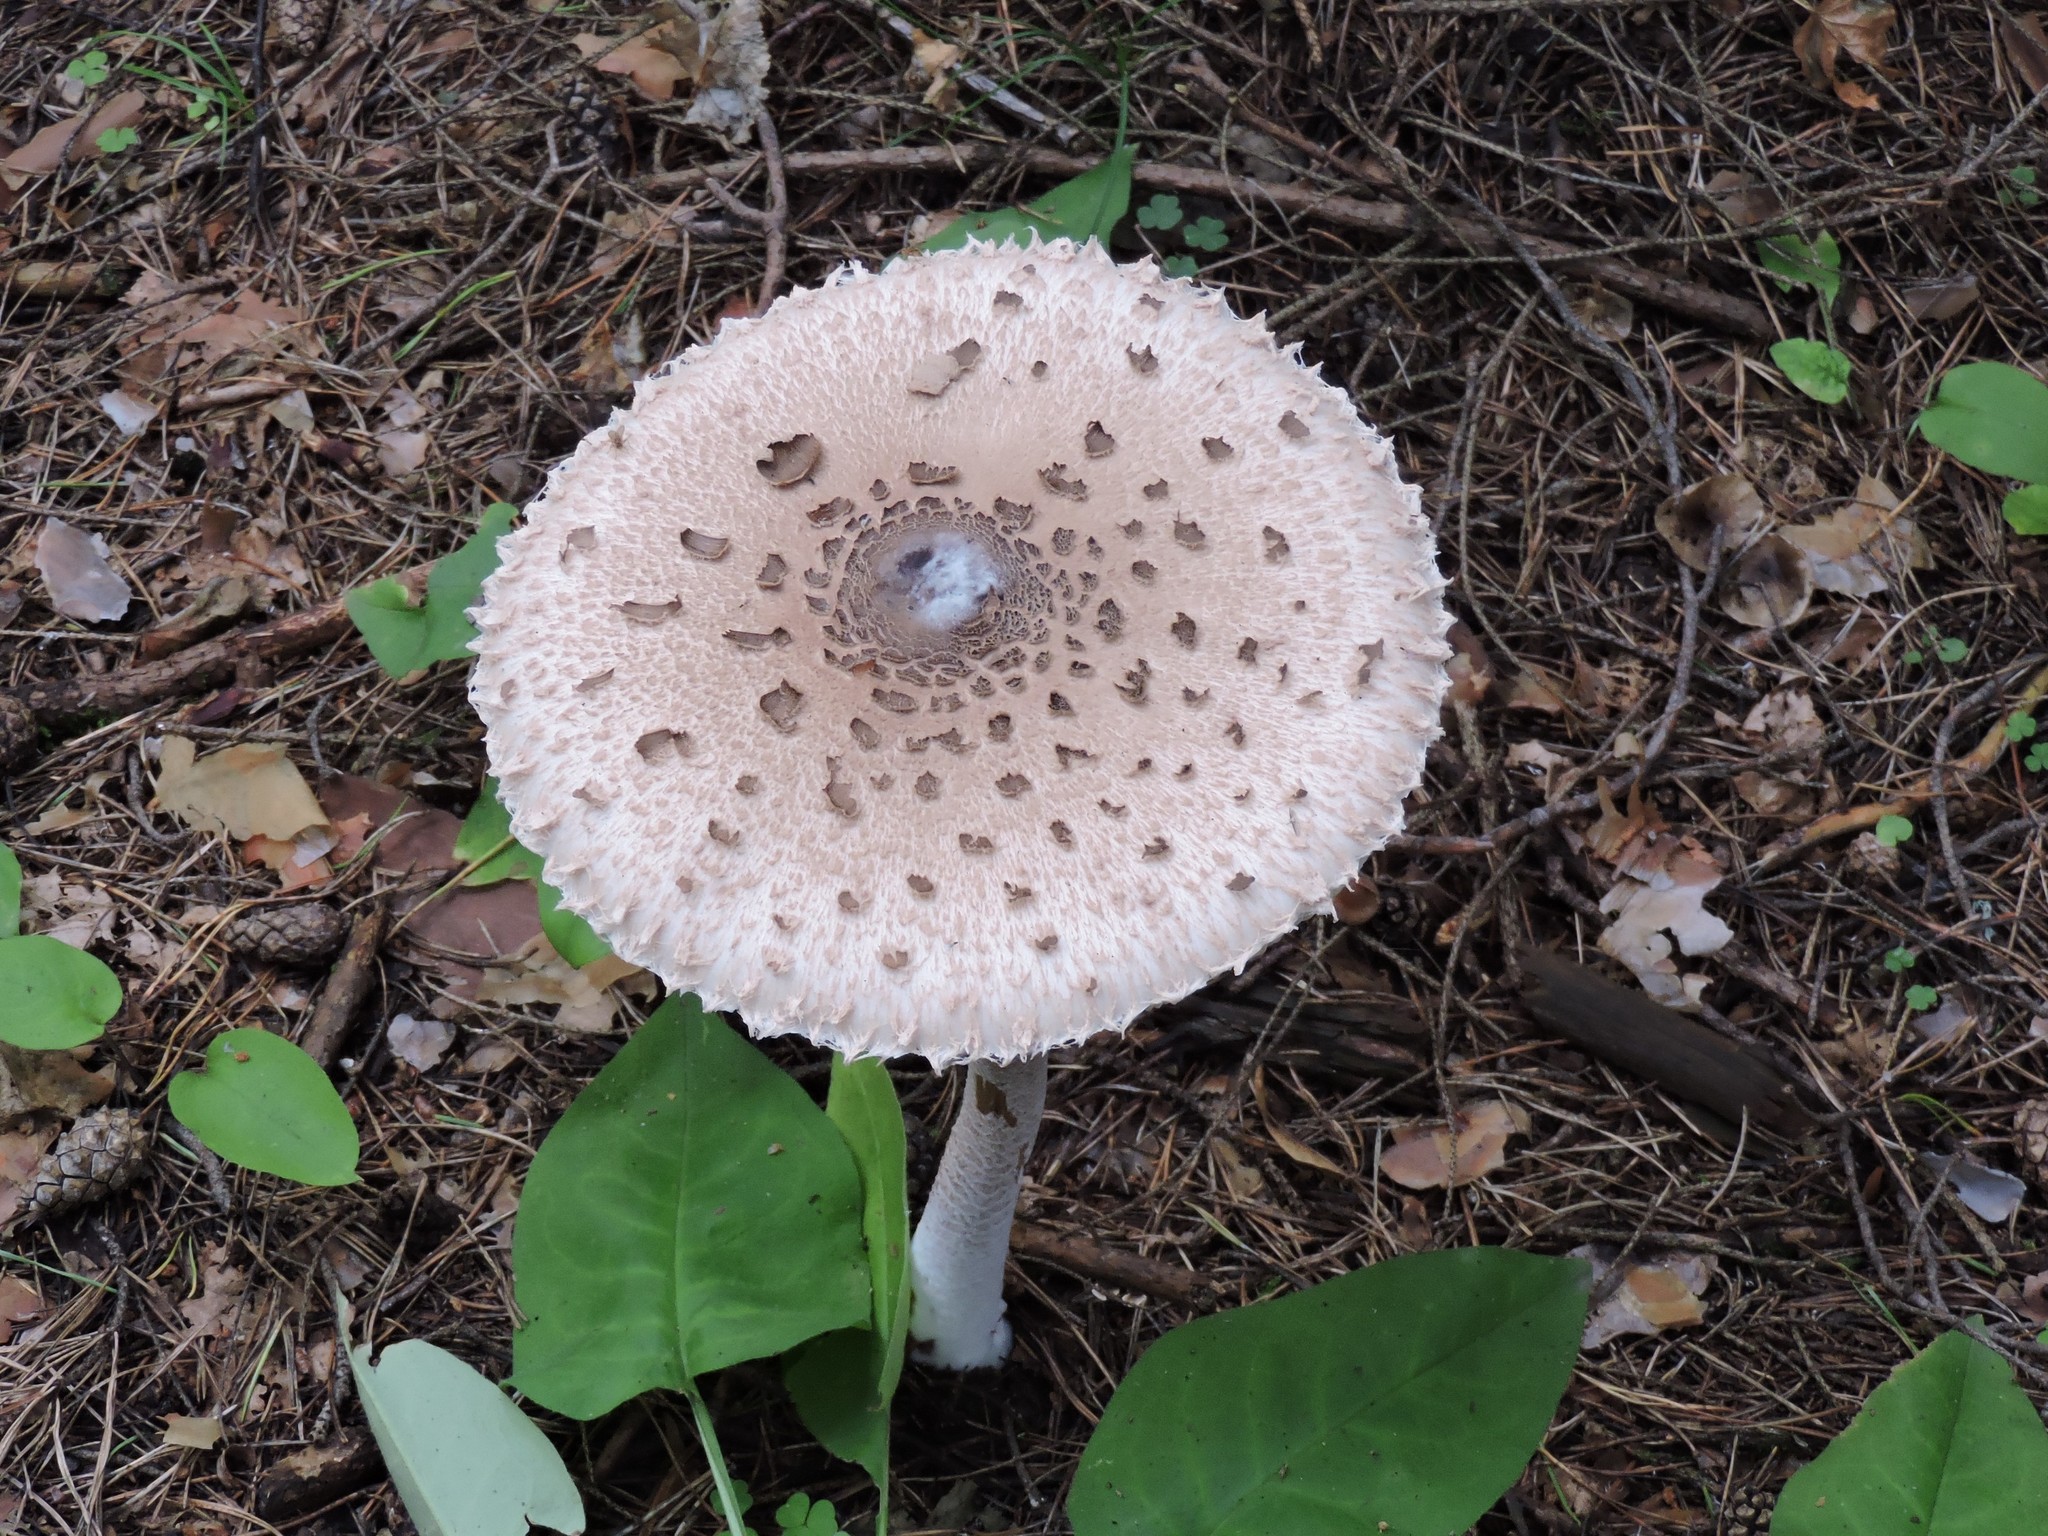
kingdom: Fungi
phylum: Basidiomycota
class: Agaricomycetes
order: Agaricales
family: Agaricaceae
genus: Macrolepiota
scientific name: Macrolepiota procera
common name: Parasol
